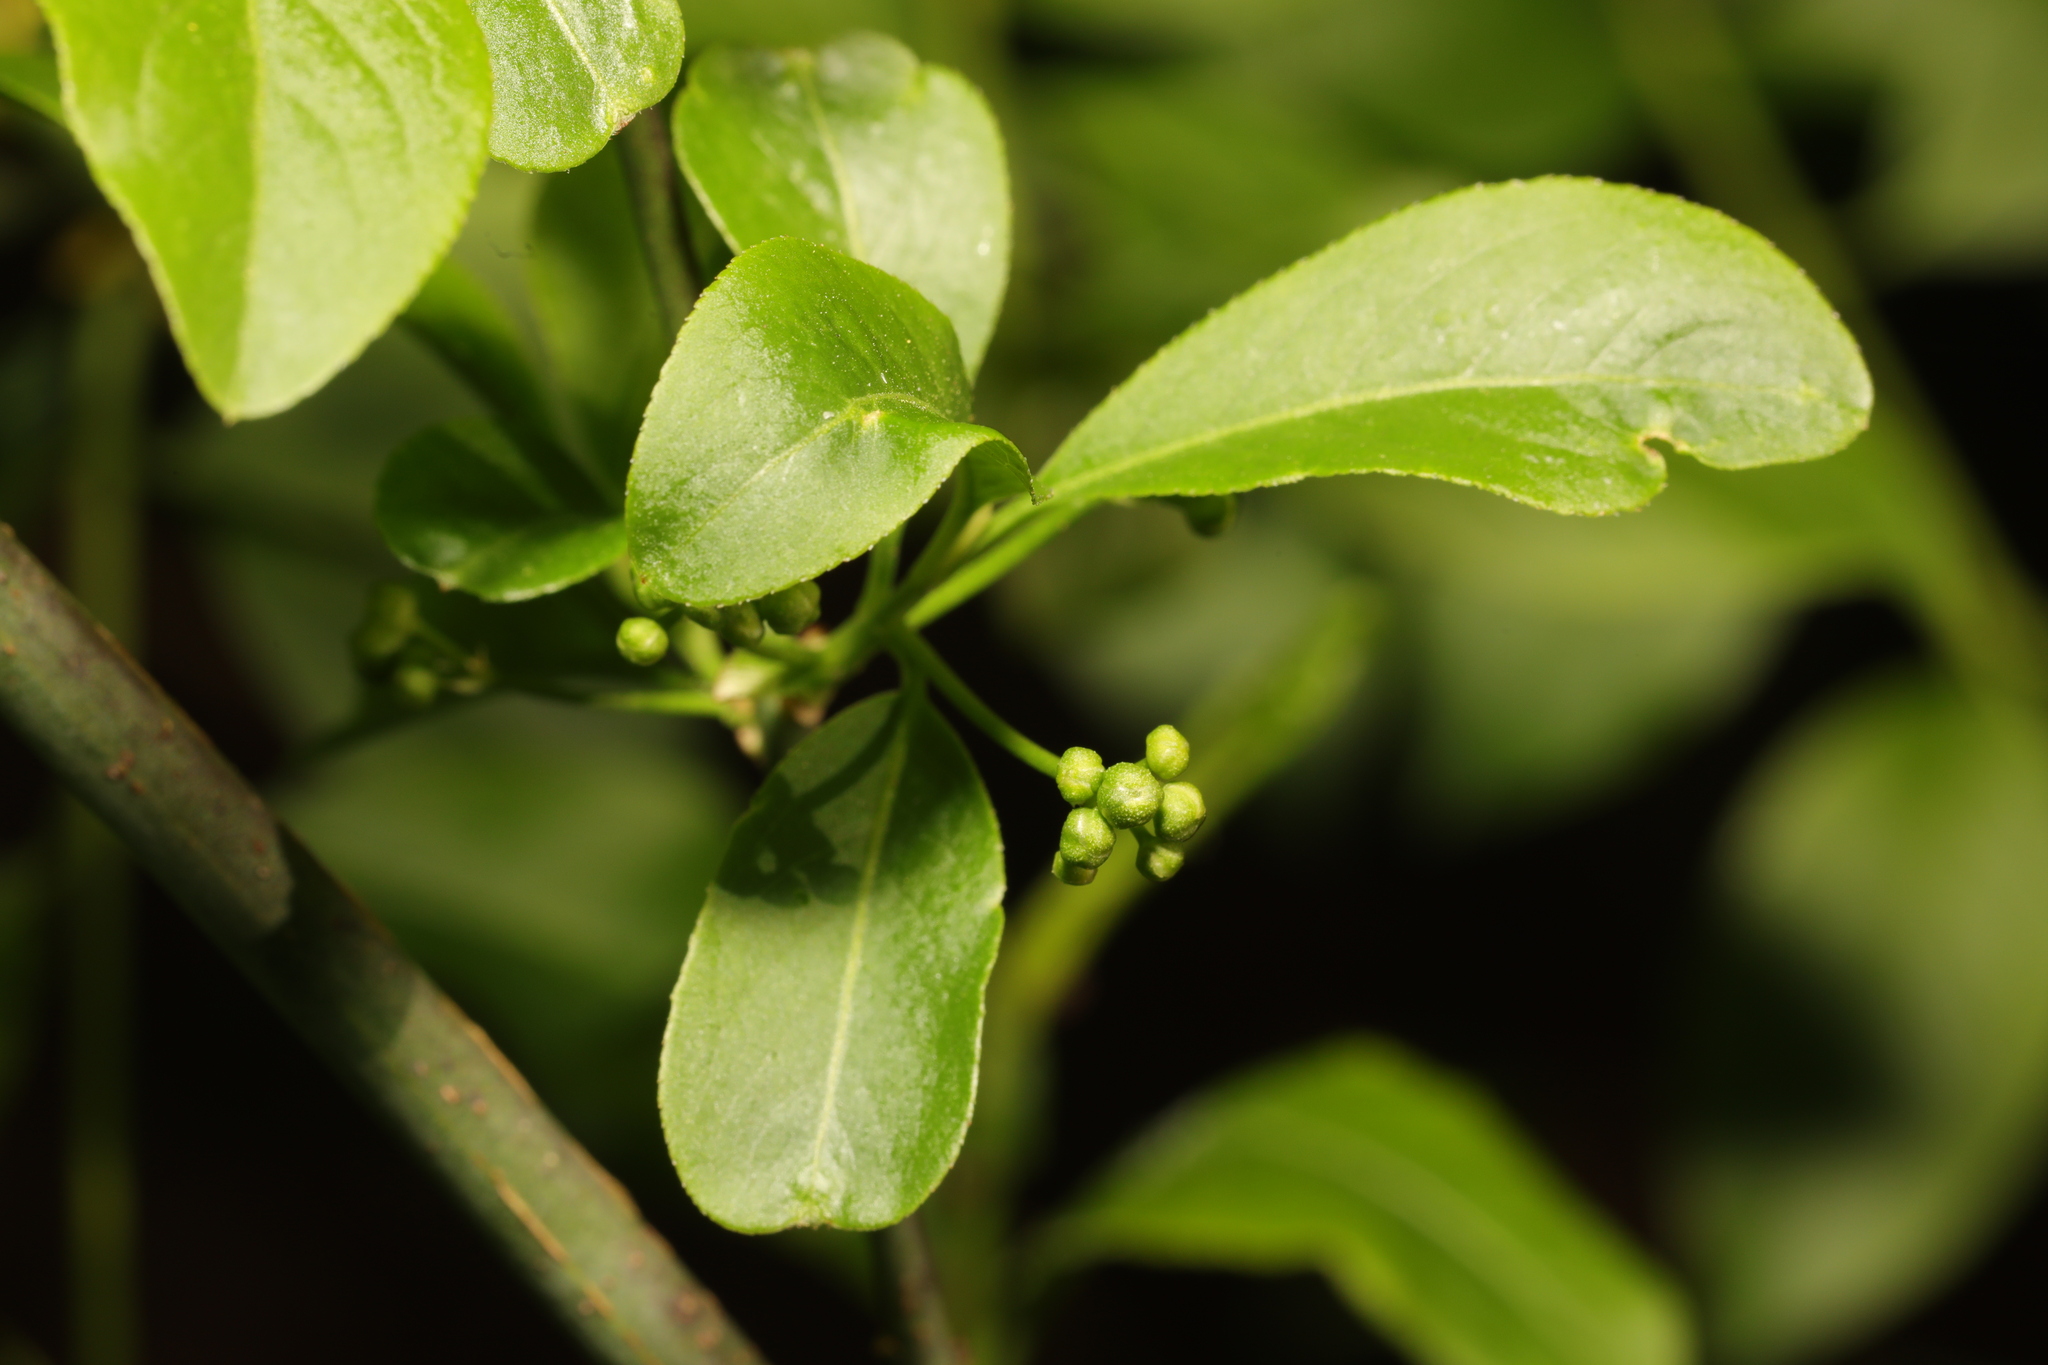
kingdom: Plantae
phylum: Tracheophyta
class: Magnoliopsida
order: Celastrales
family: Celastraceae
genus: Euonymus
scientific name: Euonymus europaeus
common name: Spindle
